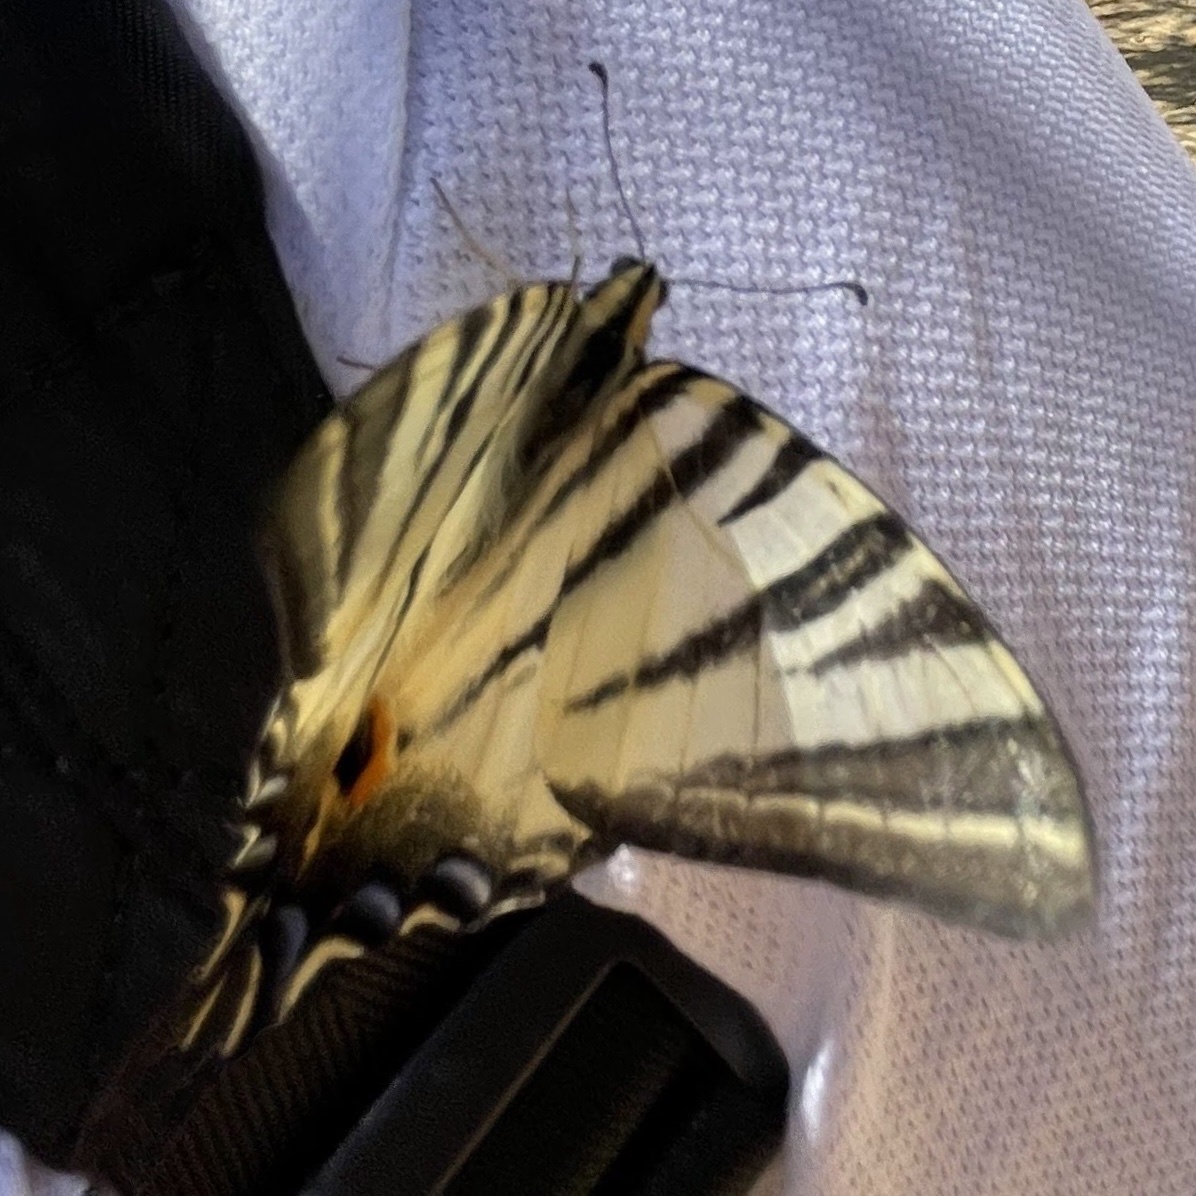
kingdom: Animalia
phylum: Arthropoda
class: Insecta
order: Lepidoptera
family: Papilionidae
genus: Iphiclides
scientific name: Iphiclides podalirius
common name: Scarce swallowtail
